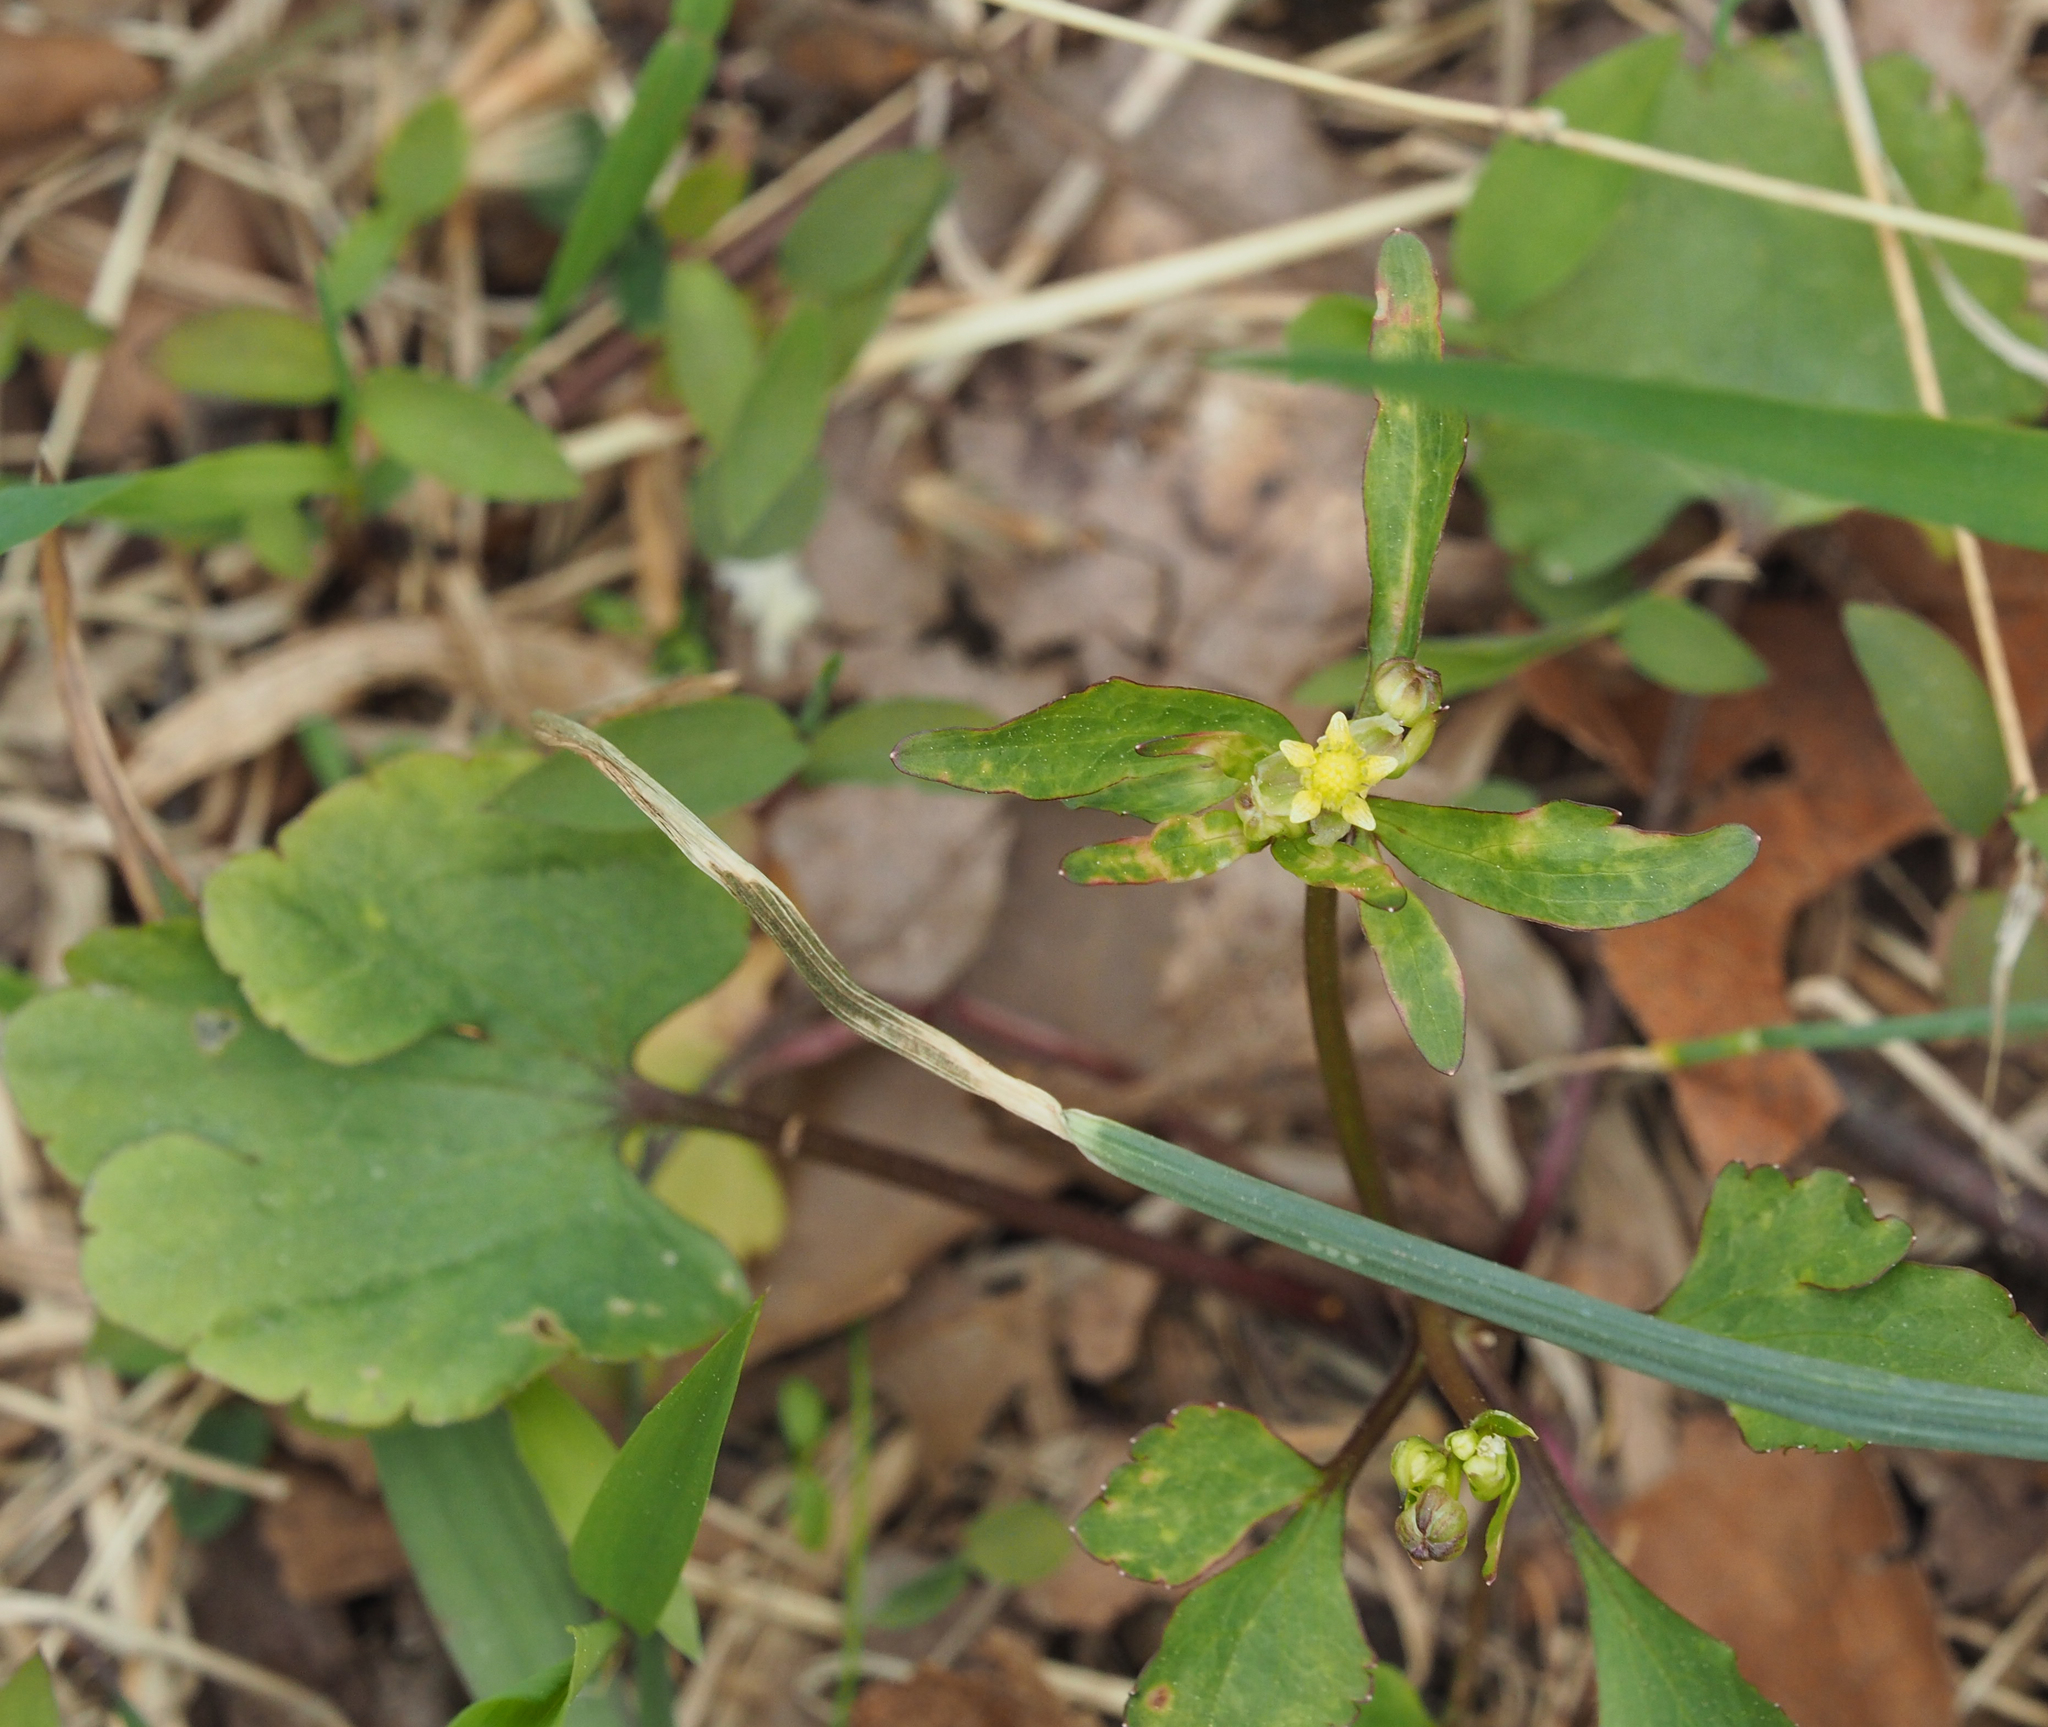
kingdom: Plantae
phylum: Tracheophyta
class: Magnoliopsida
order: Ranunculales
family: Ranunculaceae
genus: Ranunculus
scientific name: Ranunculus abortivus
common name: Early wood buttercup
